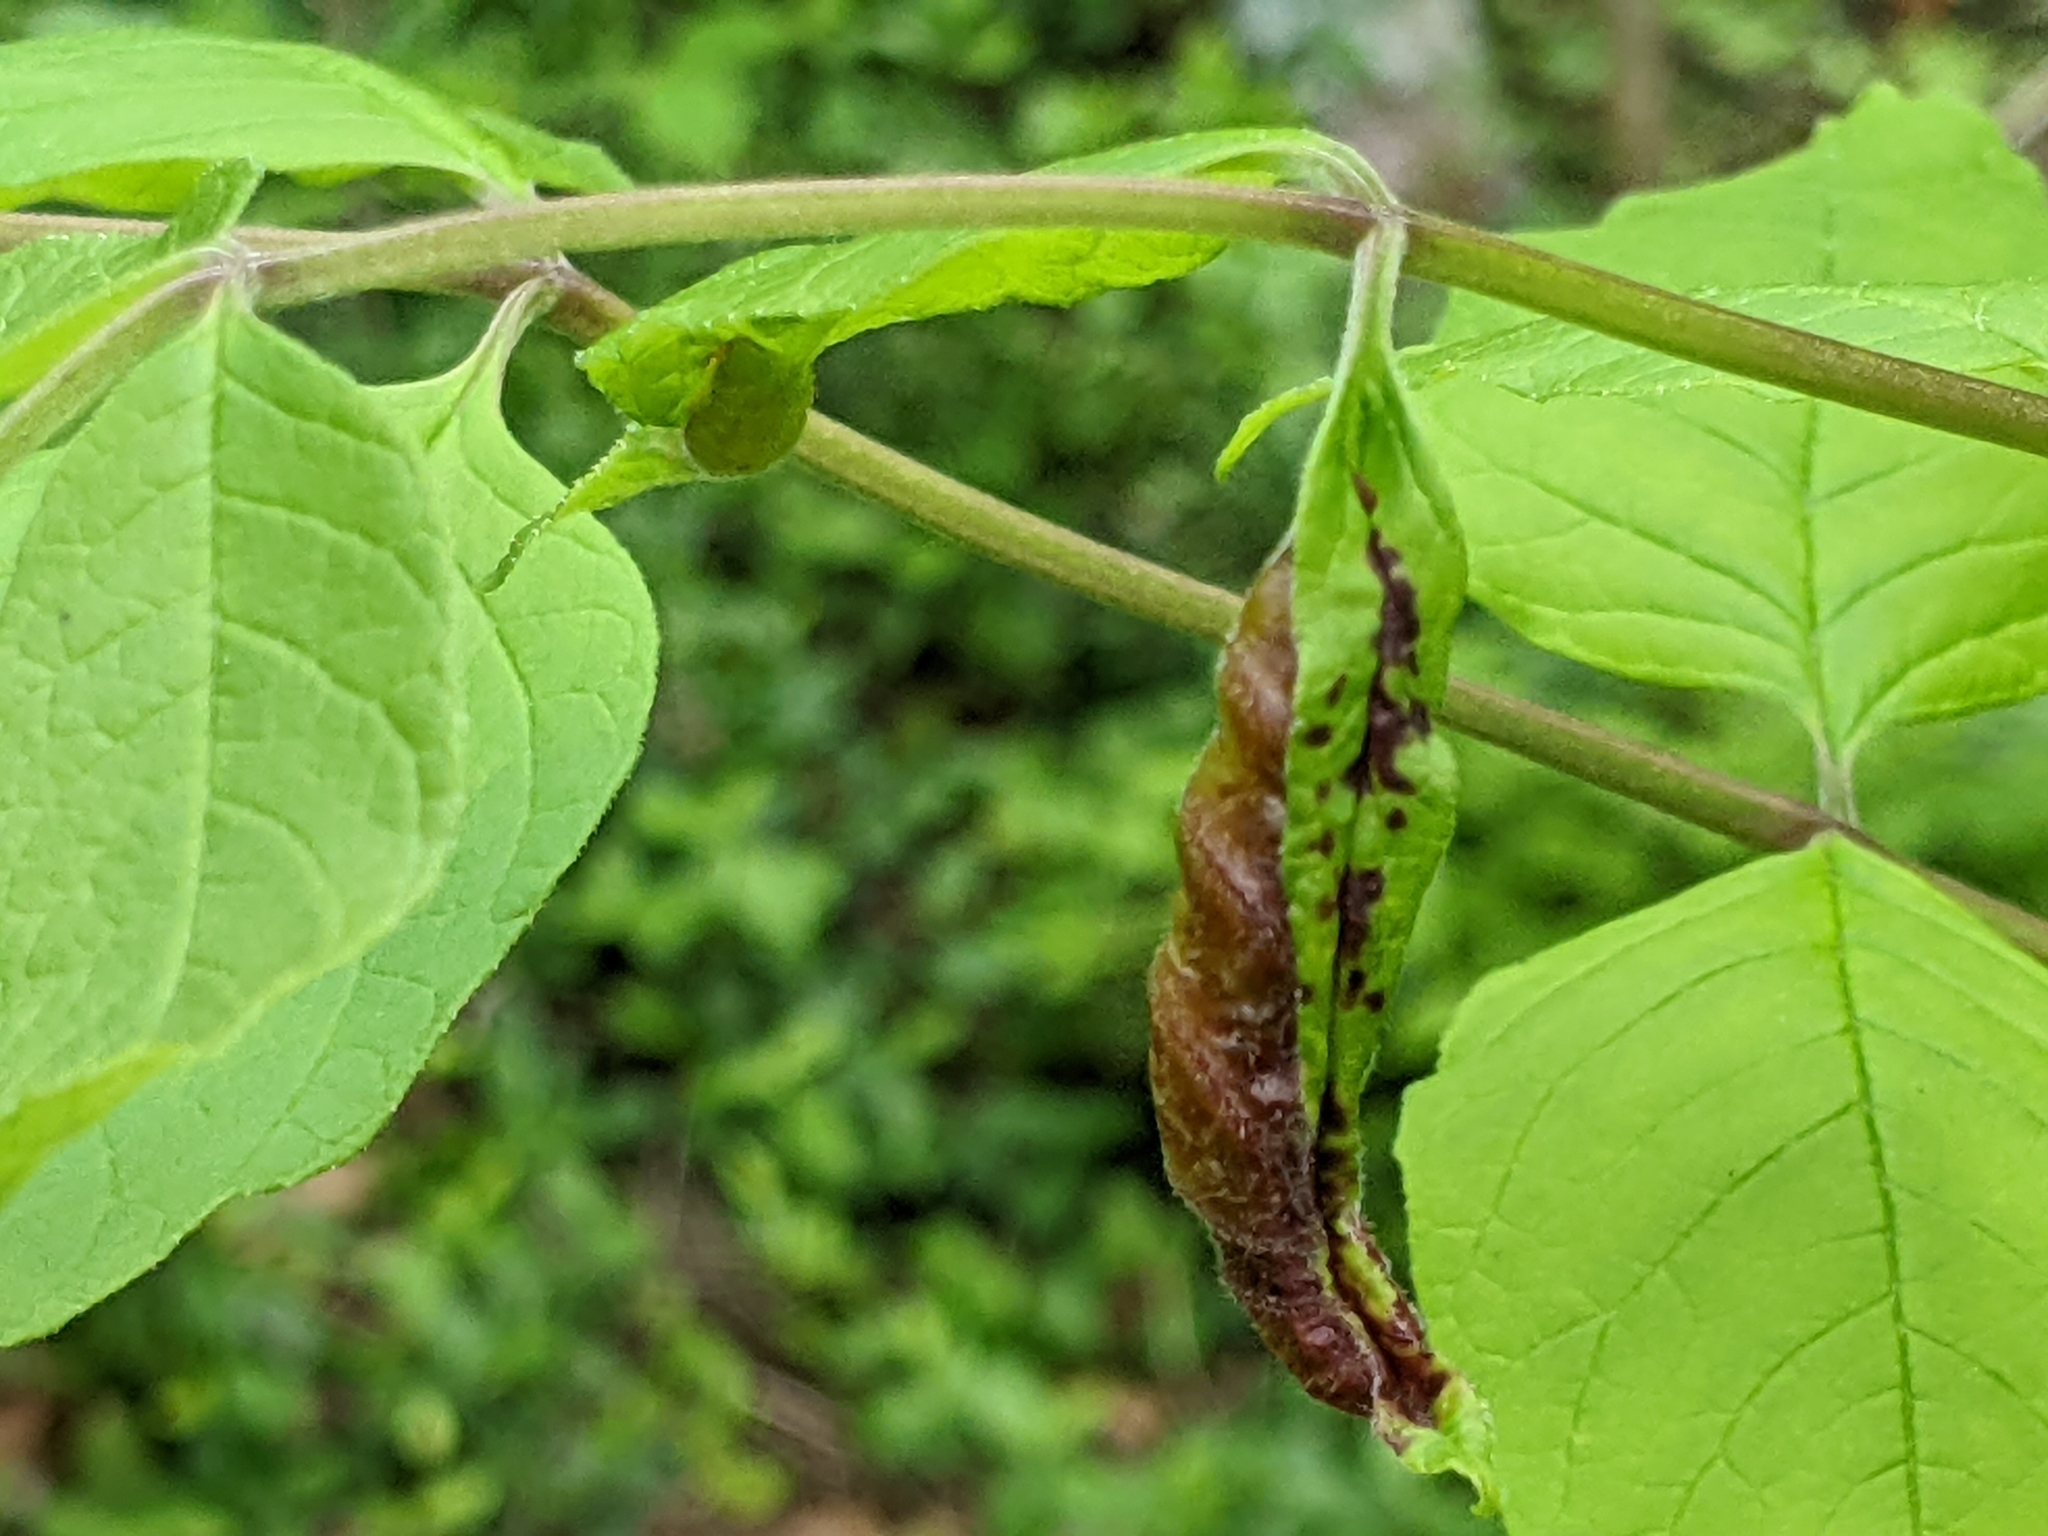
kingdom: Animalia
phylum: Arthropoda
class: Insecta
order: Diptera
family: Cecidomyiidae
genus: Dasineura
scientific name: Dasineura tumidosae
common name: Ash petiole gall midge
